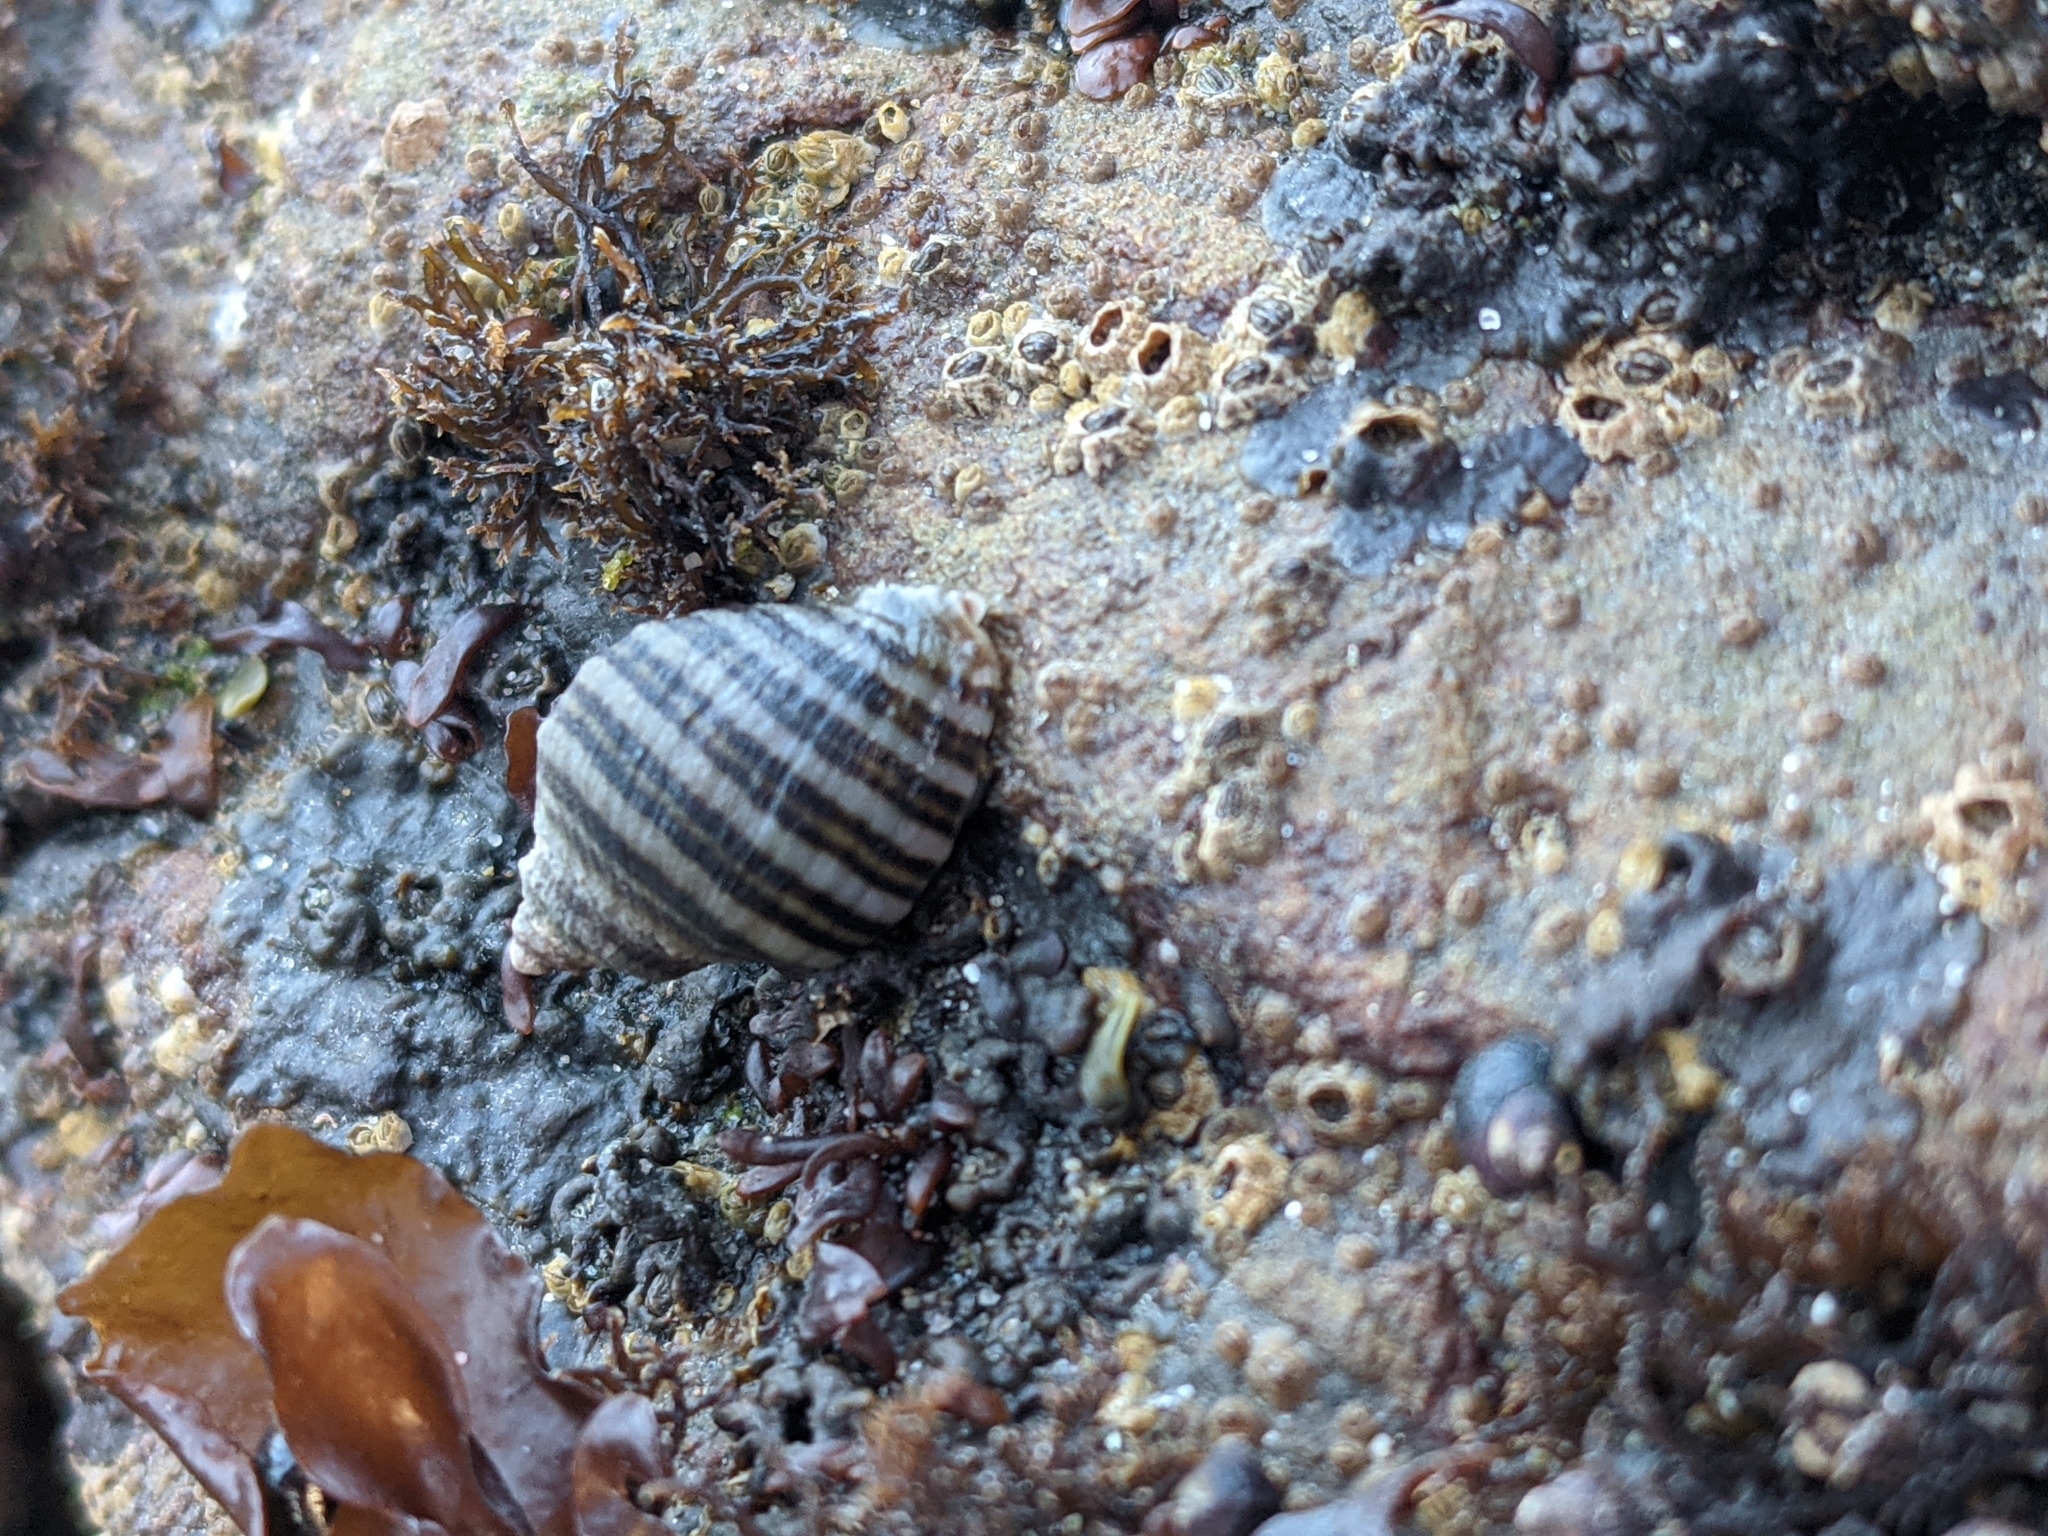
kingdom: Animalia
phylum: Mollusca
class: Gastropoda
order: Neogastropoda
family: Muricidae
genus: Nucella
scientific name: Nucella ostrina
